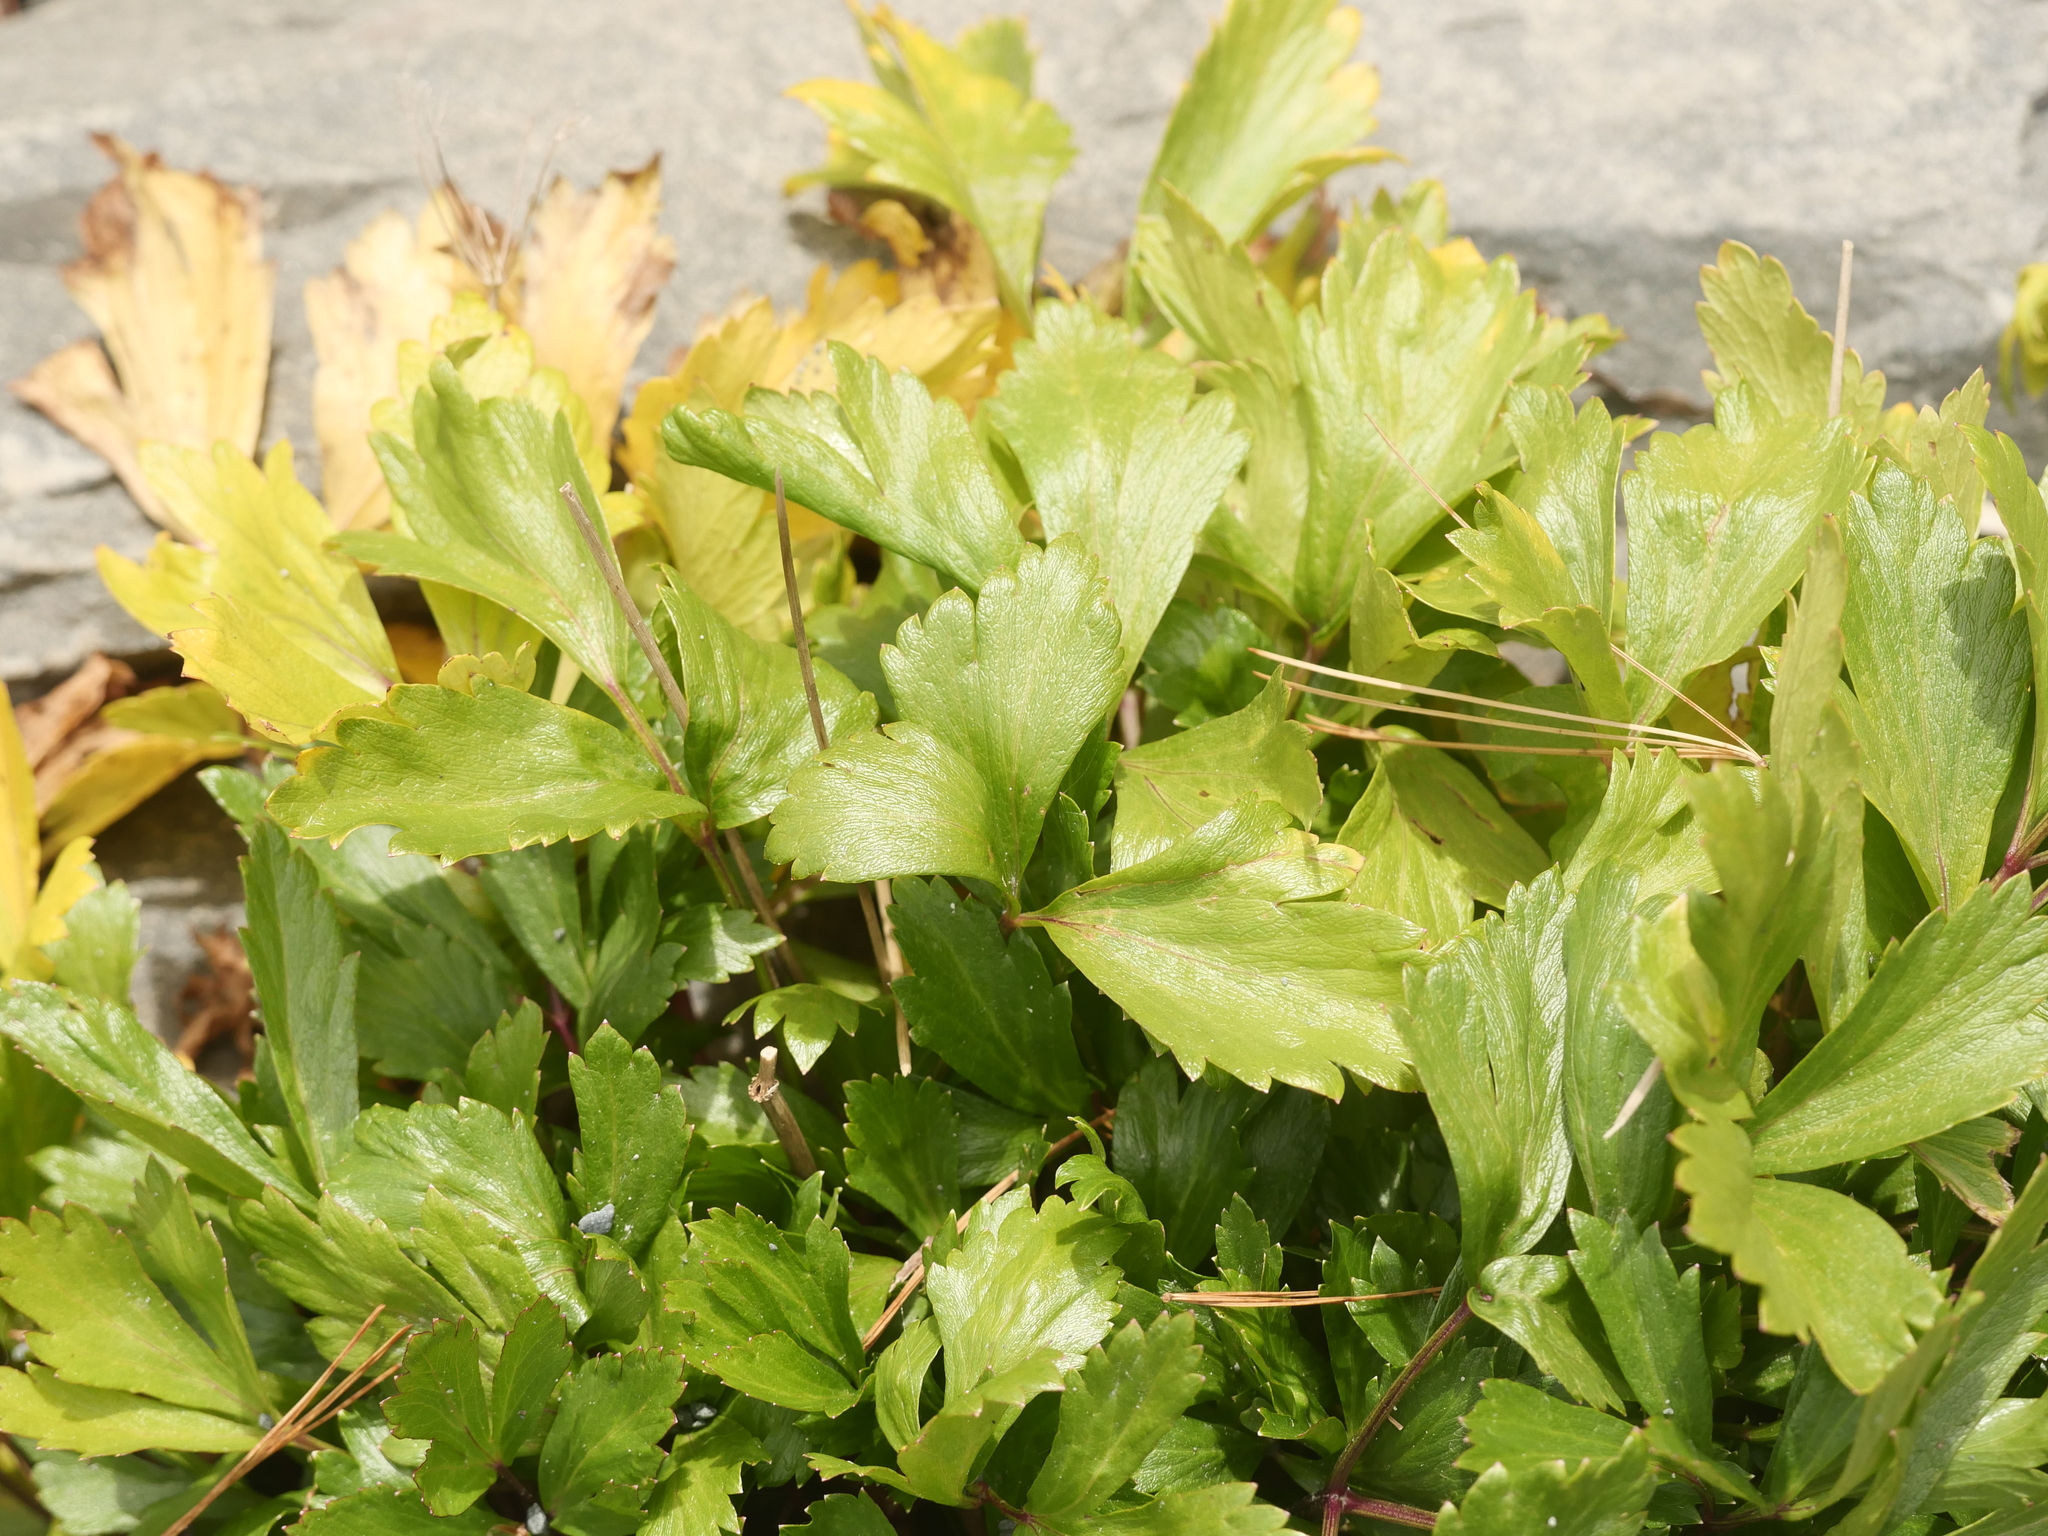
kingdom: Plantae
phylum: Tracheophyta
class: Magnoliopsida
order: Apiales
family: Apiaceae
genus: Ligusticum
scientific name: Ligusticum scothicum
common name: Beach lovage
